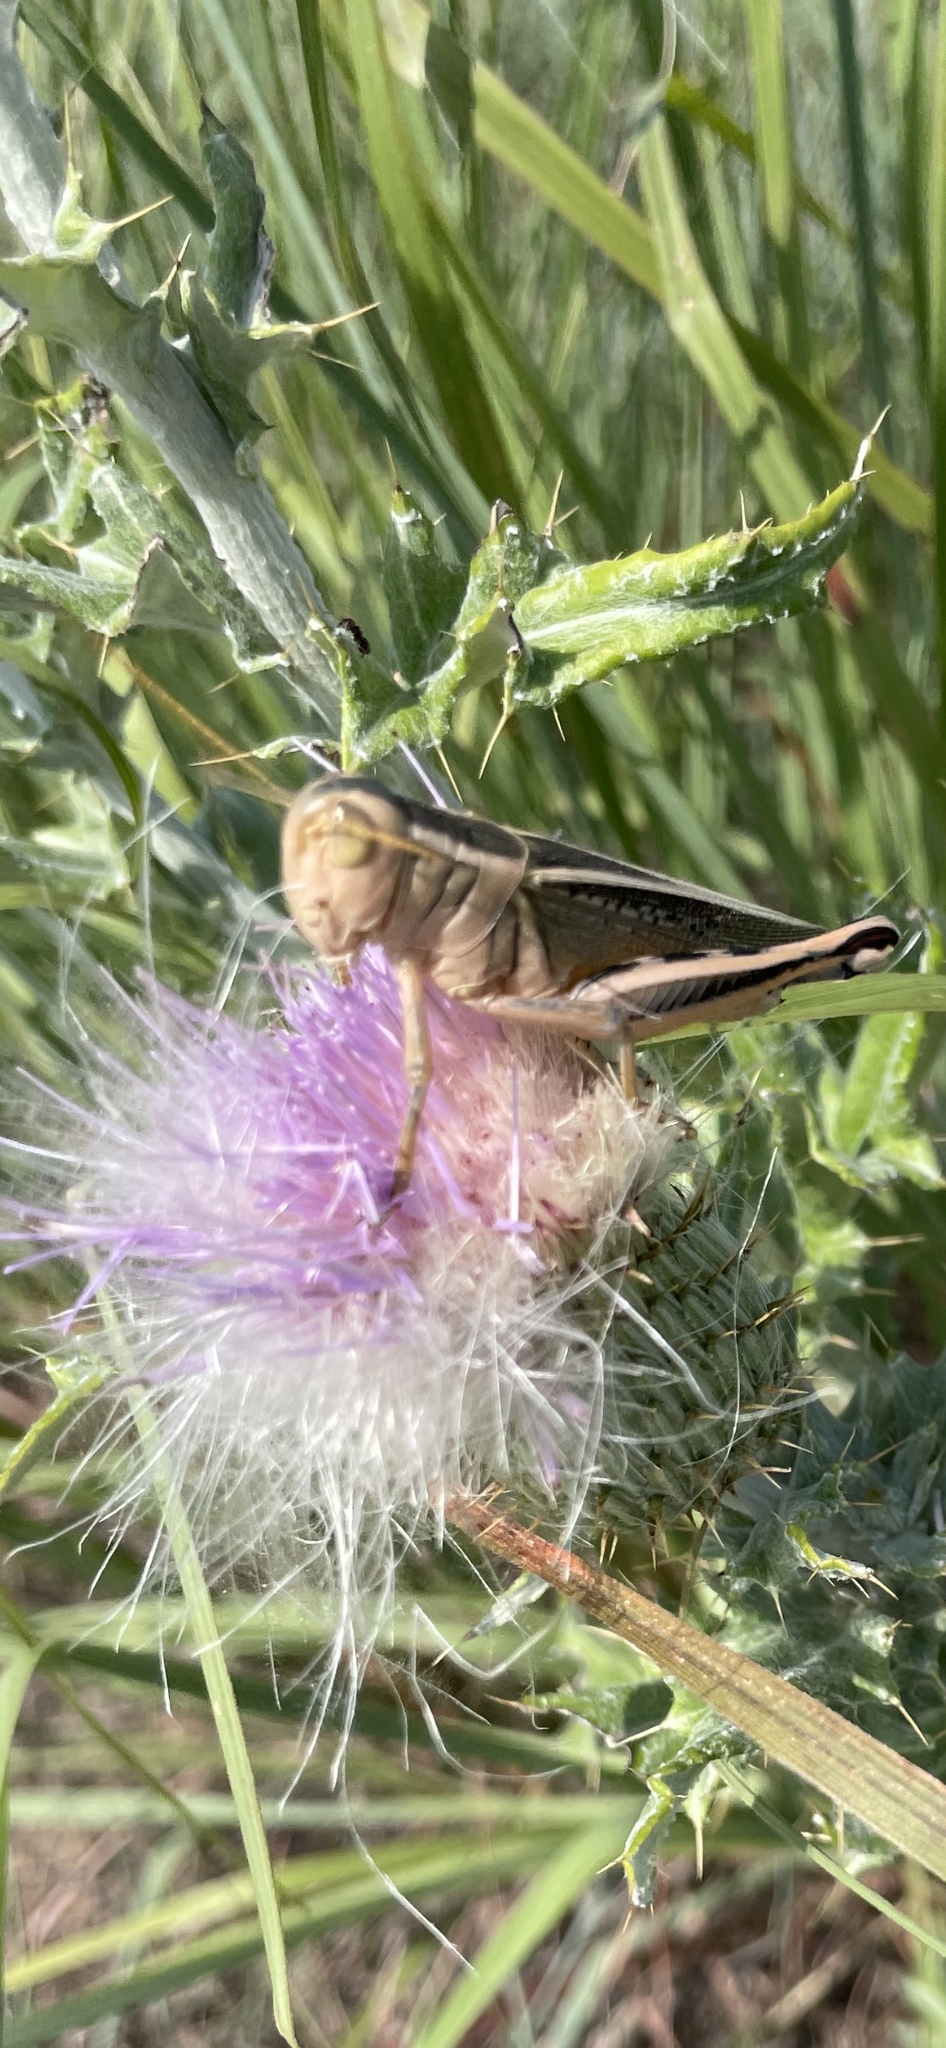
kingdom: Animalia
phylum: Arthropoda
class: Insecta
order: Orthoptera
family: Acrididae
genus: Melanoplus
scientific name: Melanoplus bivittatus
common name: Two-striped grasshopper
